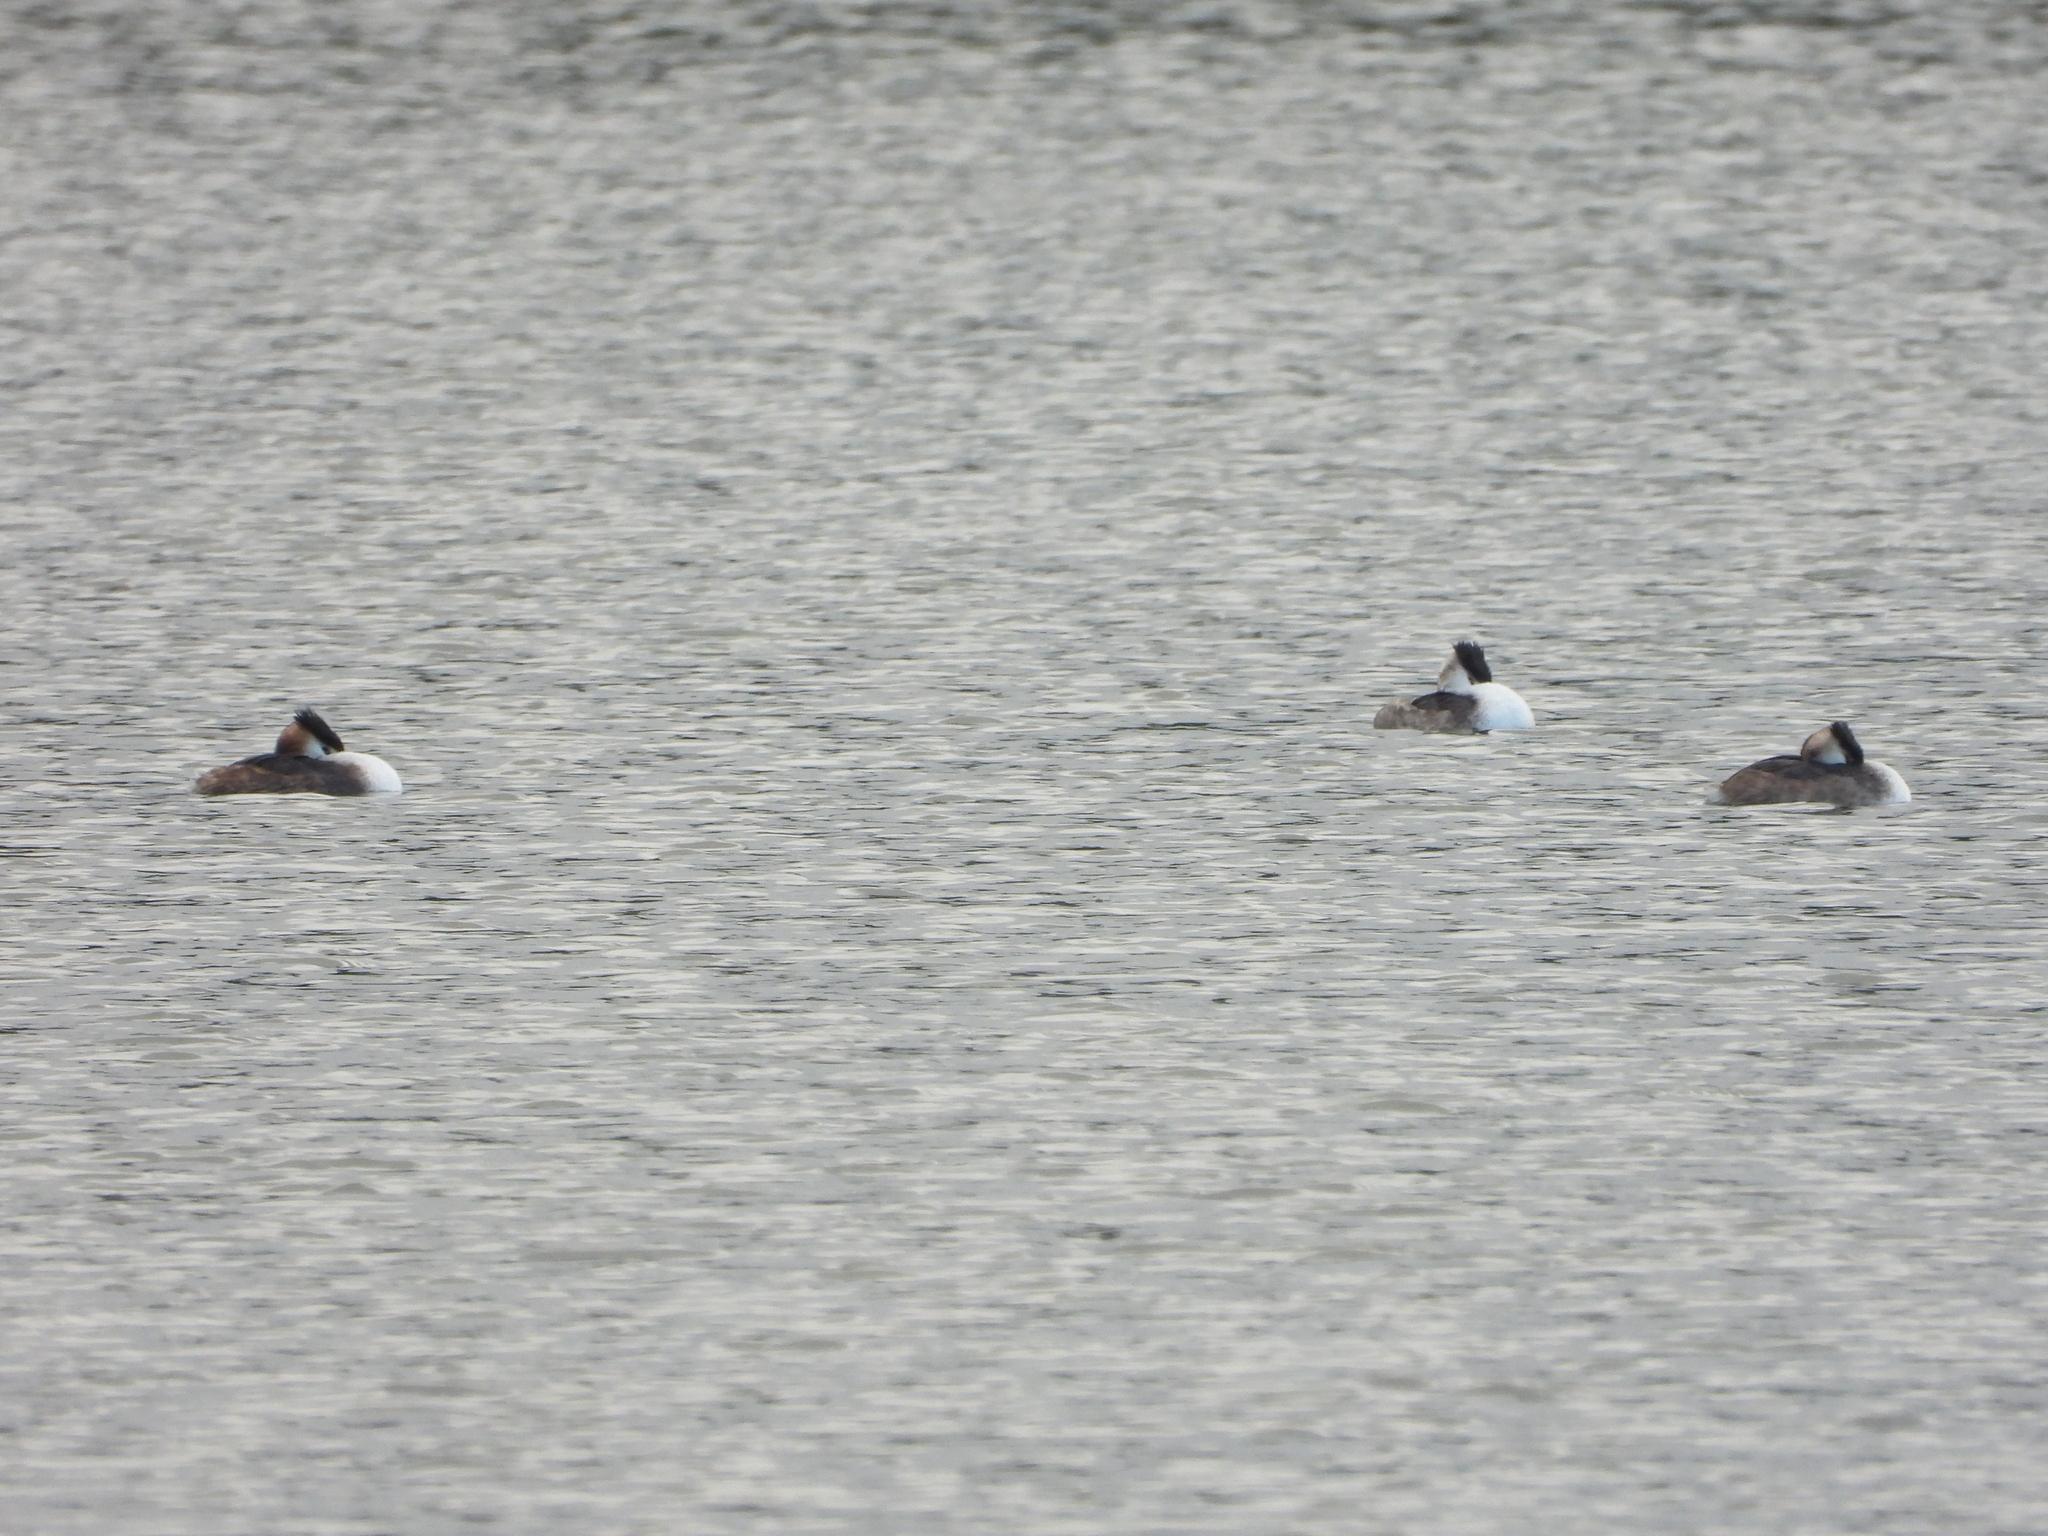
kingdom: Animalia
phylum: Chordata
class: Aves
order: Podicipediformes
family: Podicipedidae
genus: Podiceps
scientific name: Podiceps cristatus
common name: Great crested grebe
